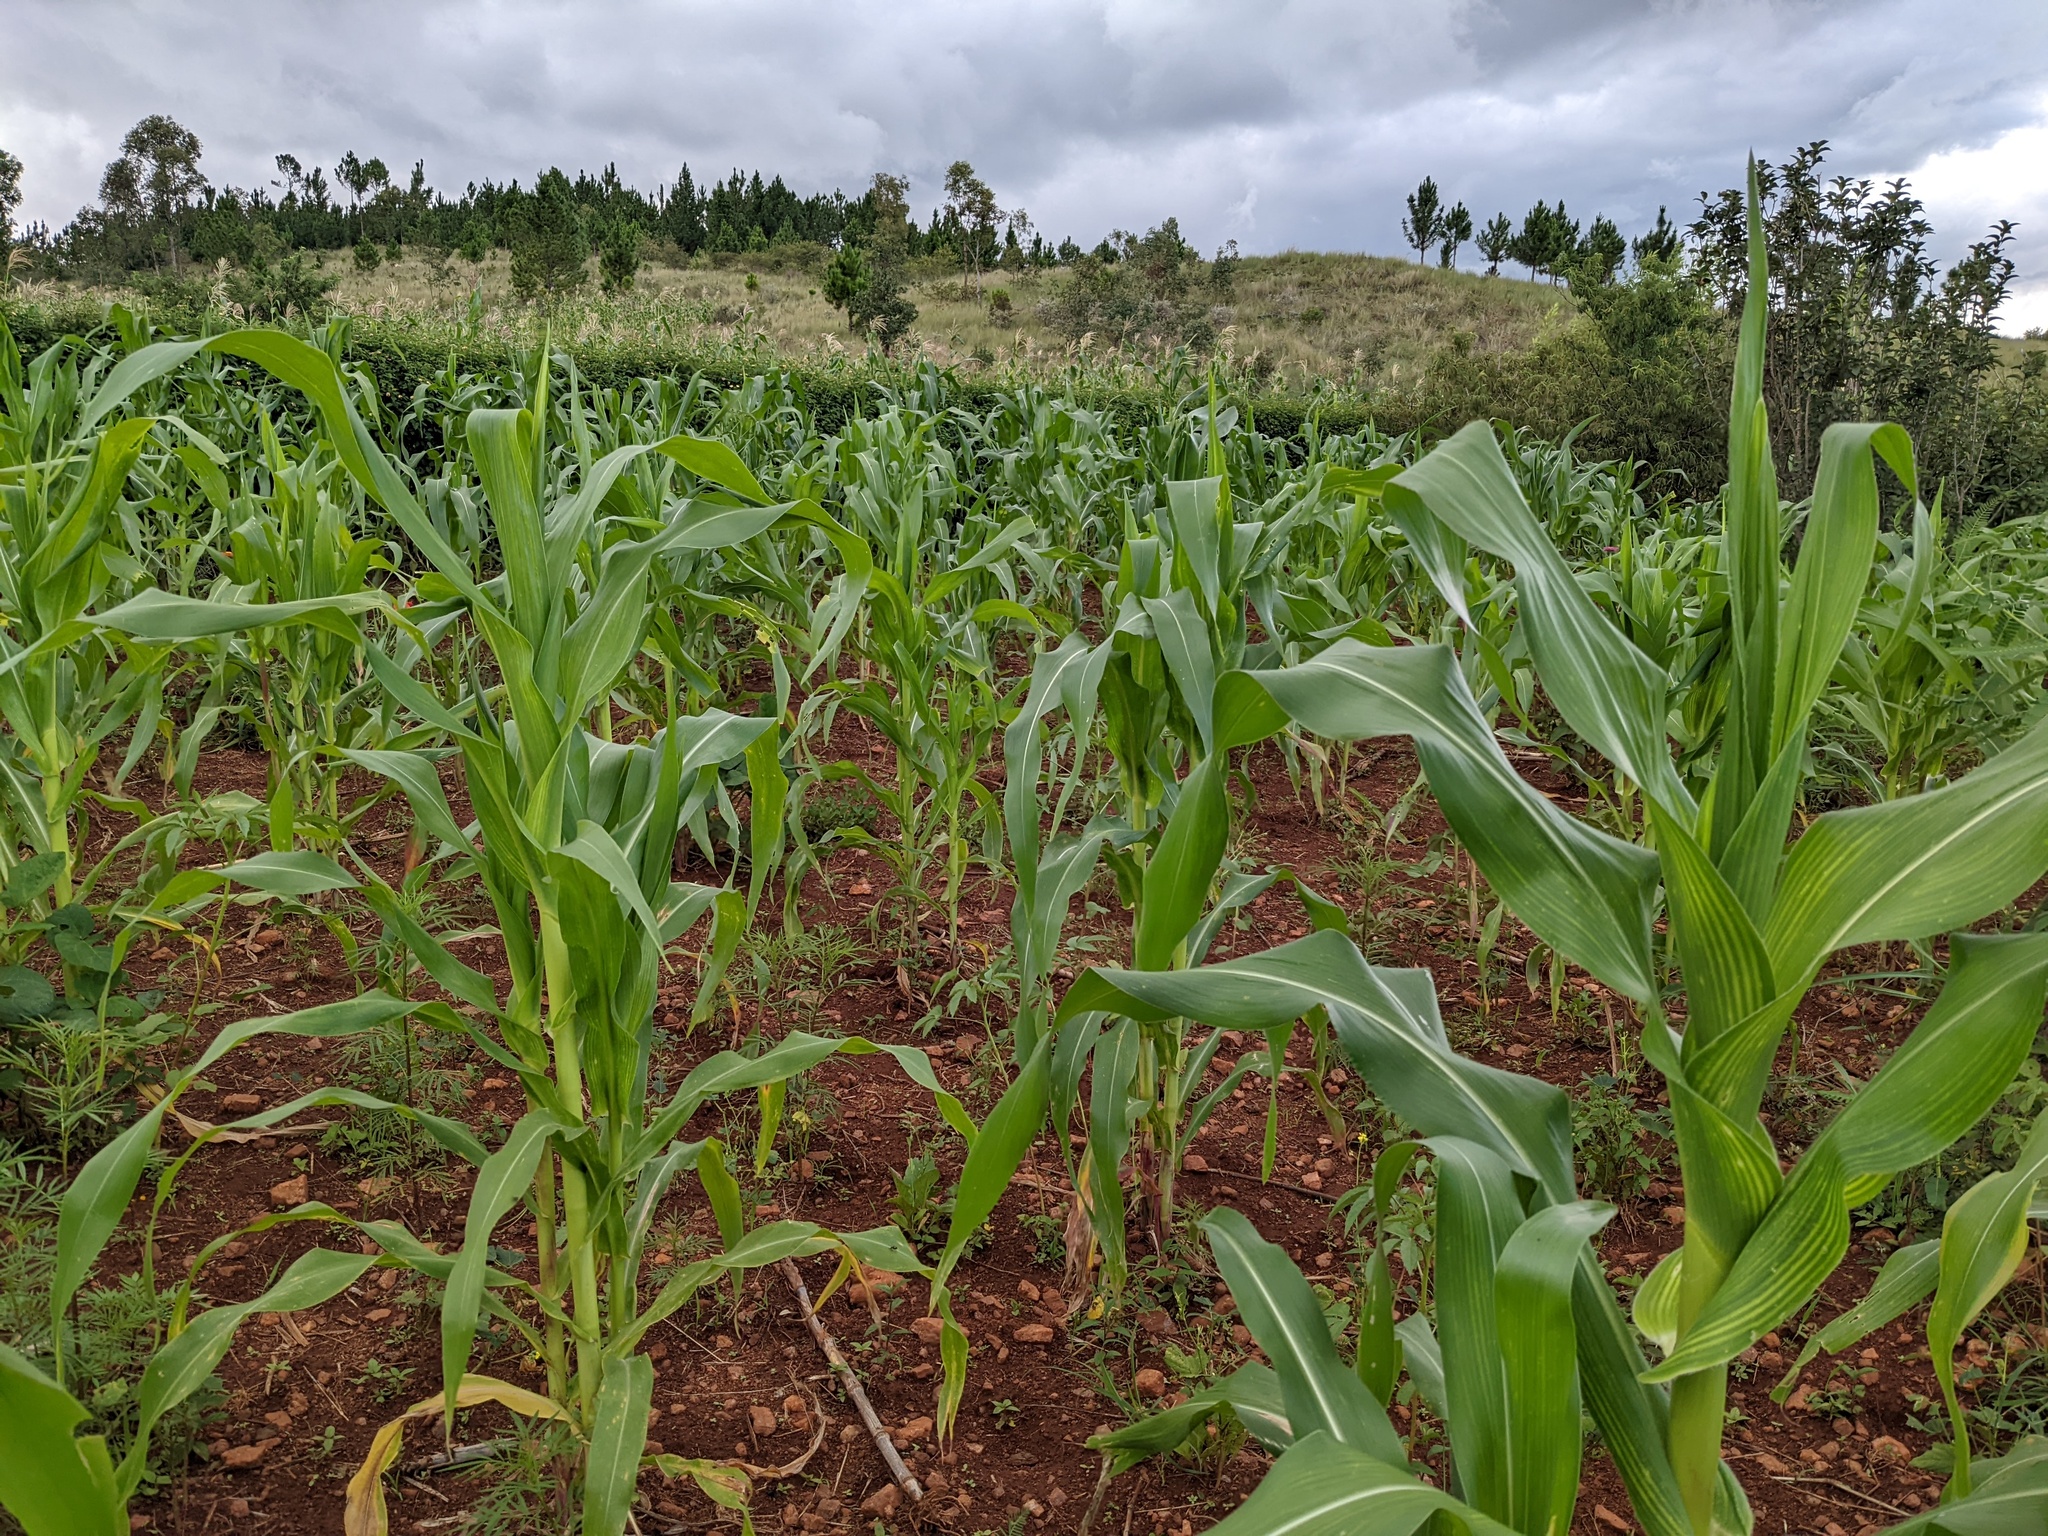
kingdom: Plantae
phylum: Tracheophyta
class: Liliopsida
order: Poales
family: Poaceae
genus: Zea
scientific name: Zea mays
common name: Maize
